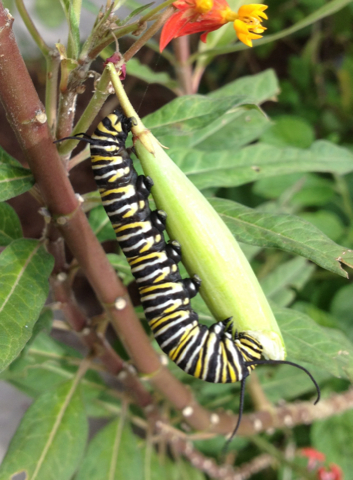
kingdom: Animalia
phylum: Arthropoda
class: Insecta
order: Lepidoptera
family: Nymphalidae
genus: Danaus
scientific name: Danaus plexippus
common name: Monarch
